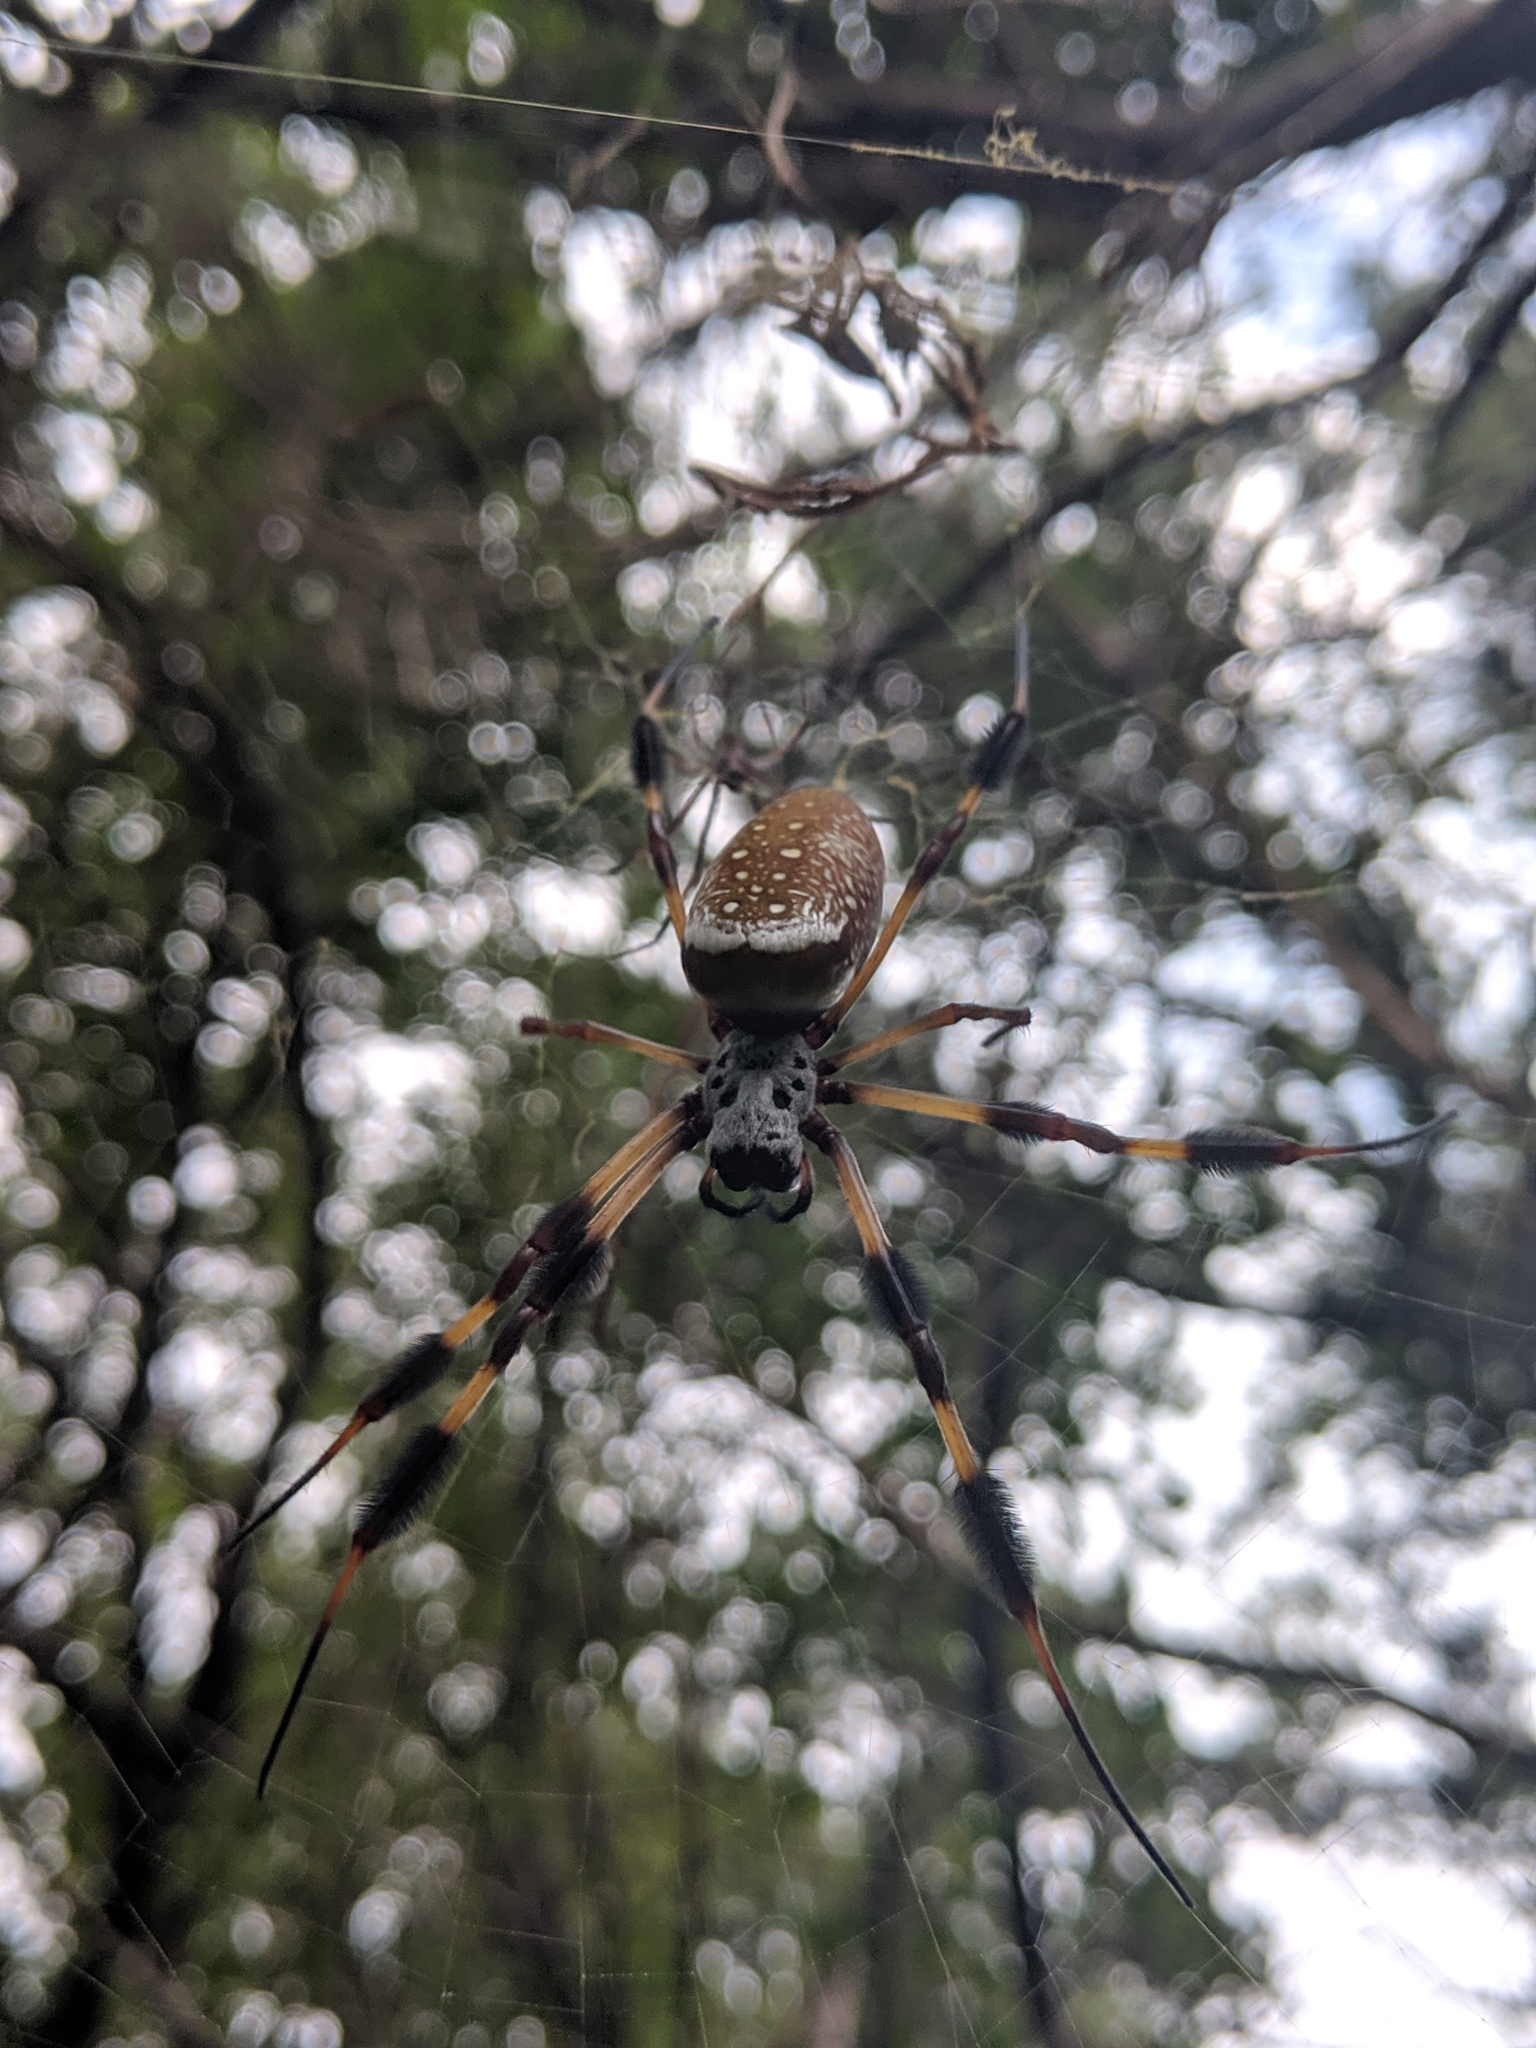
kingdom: Animalia
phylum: Arthropoda
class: Arachnida
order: Araneae
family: Araneidae
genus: Trichonephila
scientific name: Trichonephila clavipes
